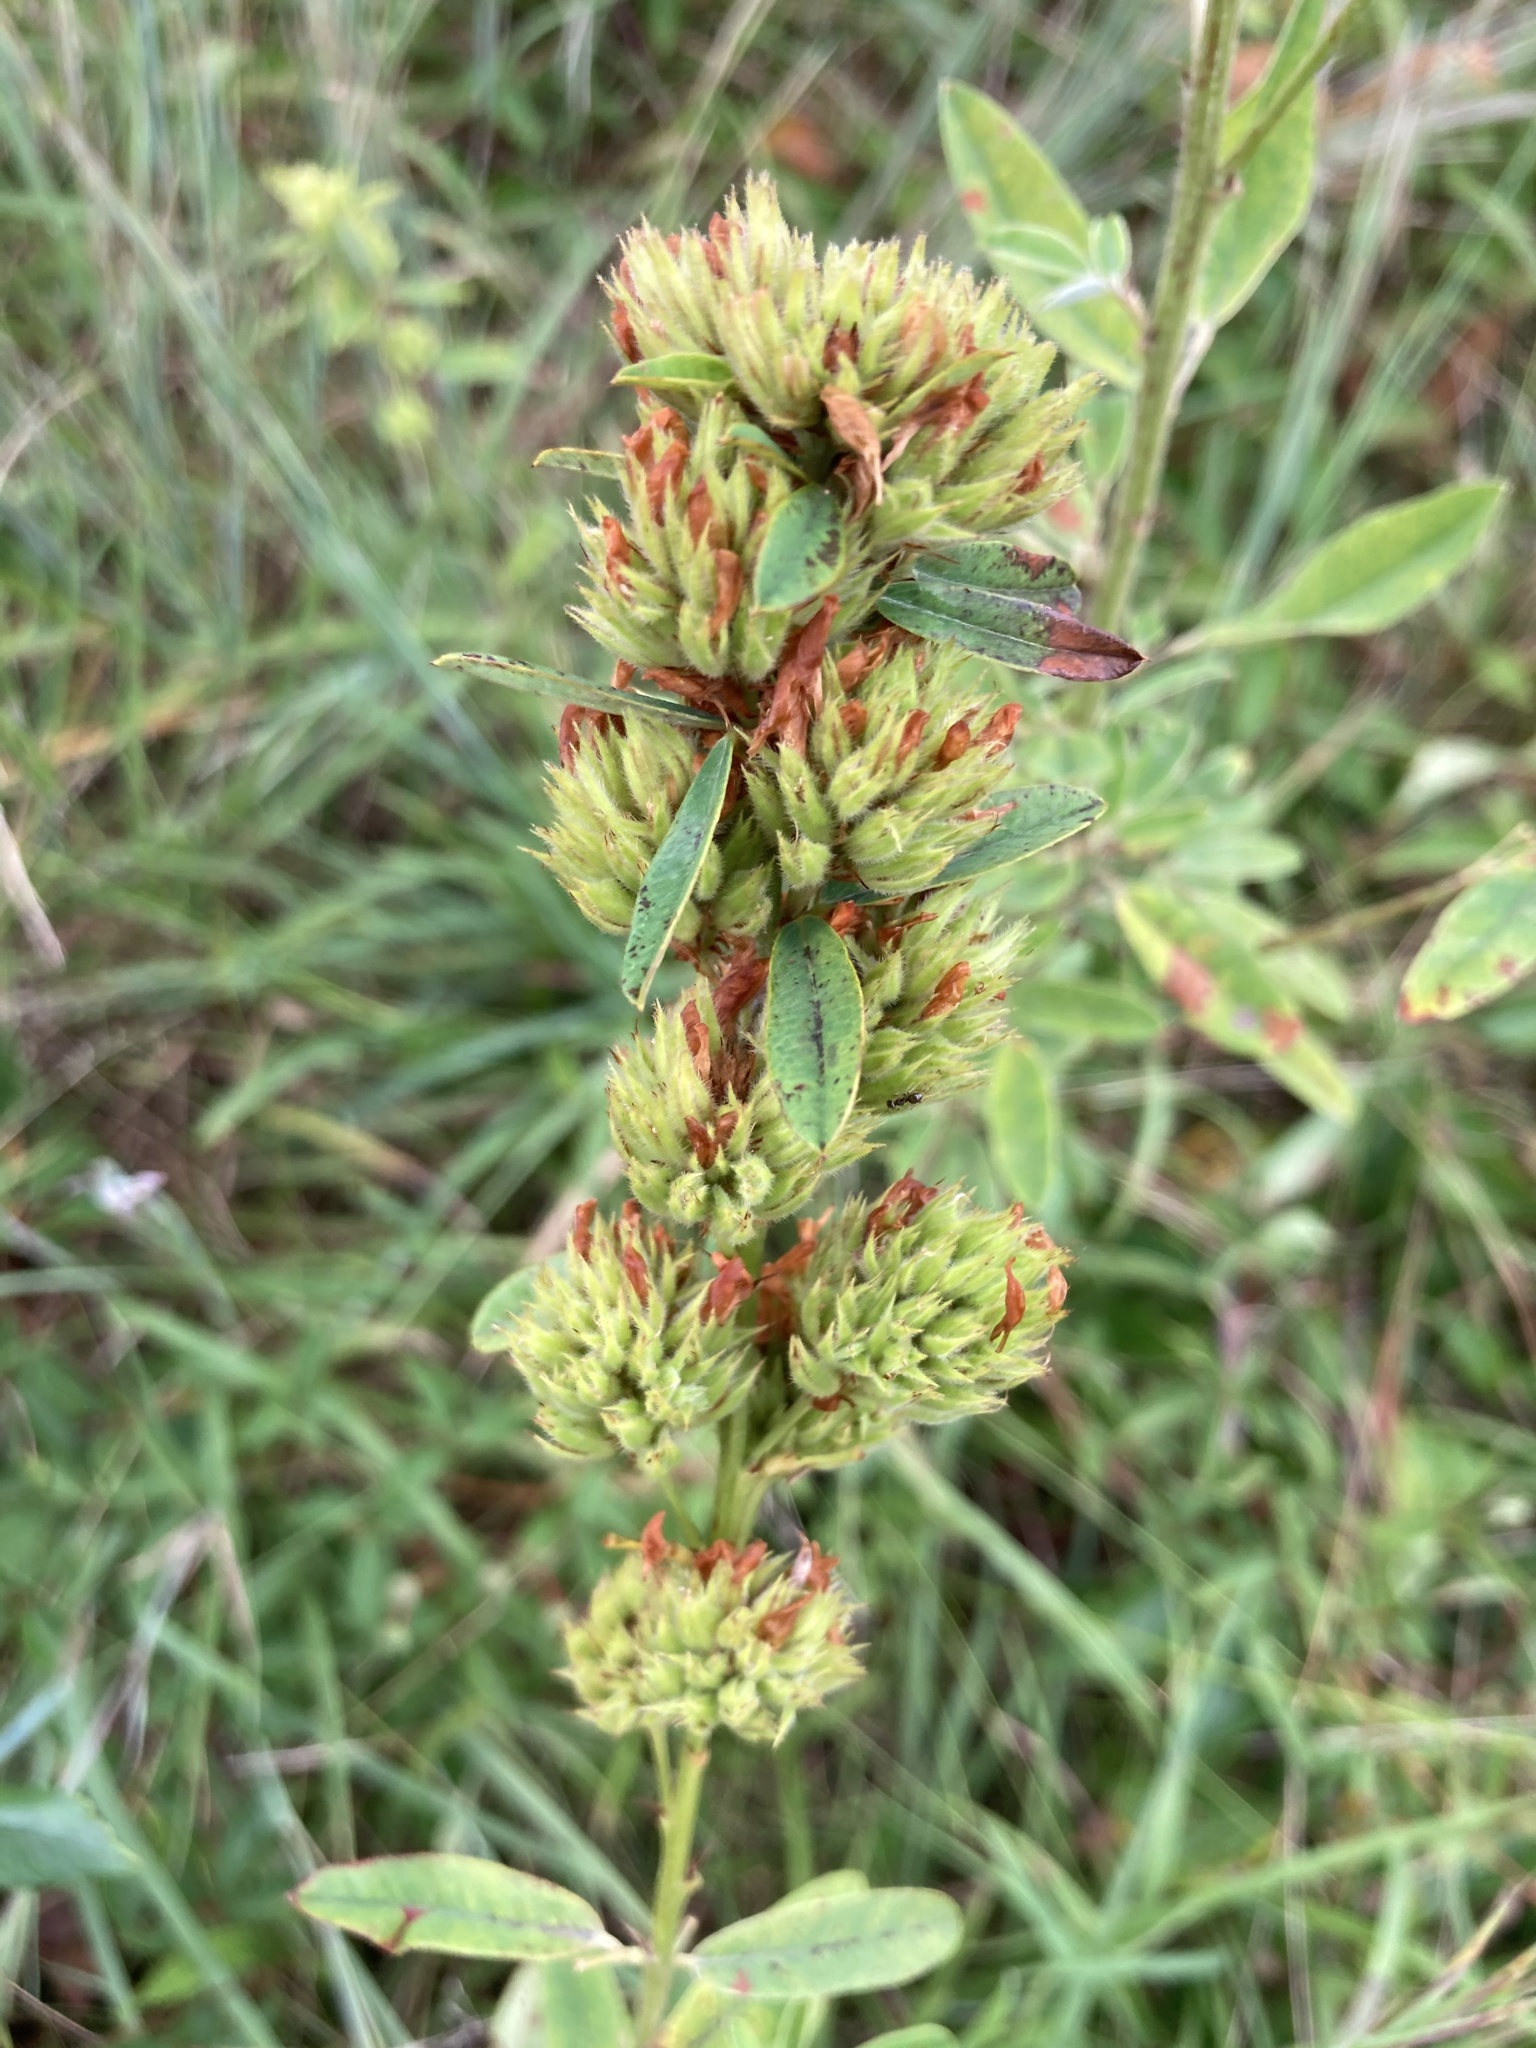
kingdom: Plantae
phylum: Tracheophyta
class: Magnoliopsida
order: Fabales
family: Fabaceae
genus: Lespedeza
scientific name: Lespedeza capitata
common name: Dusty clover
